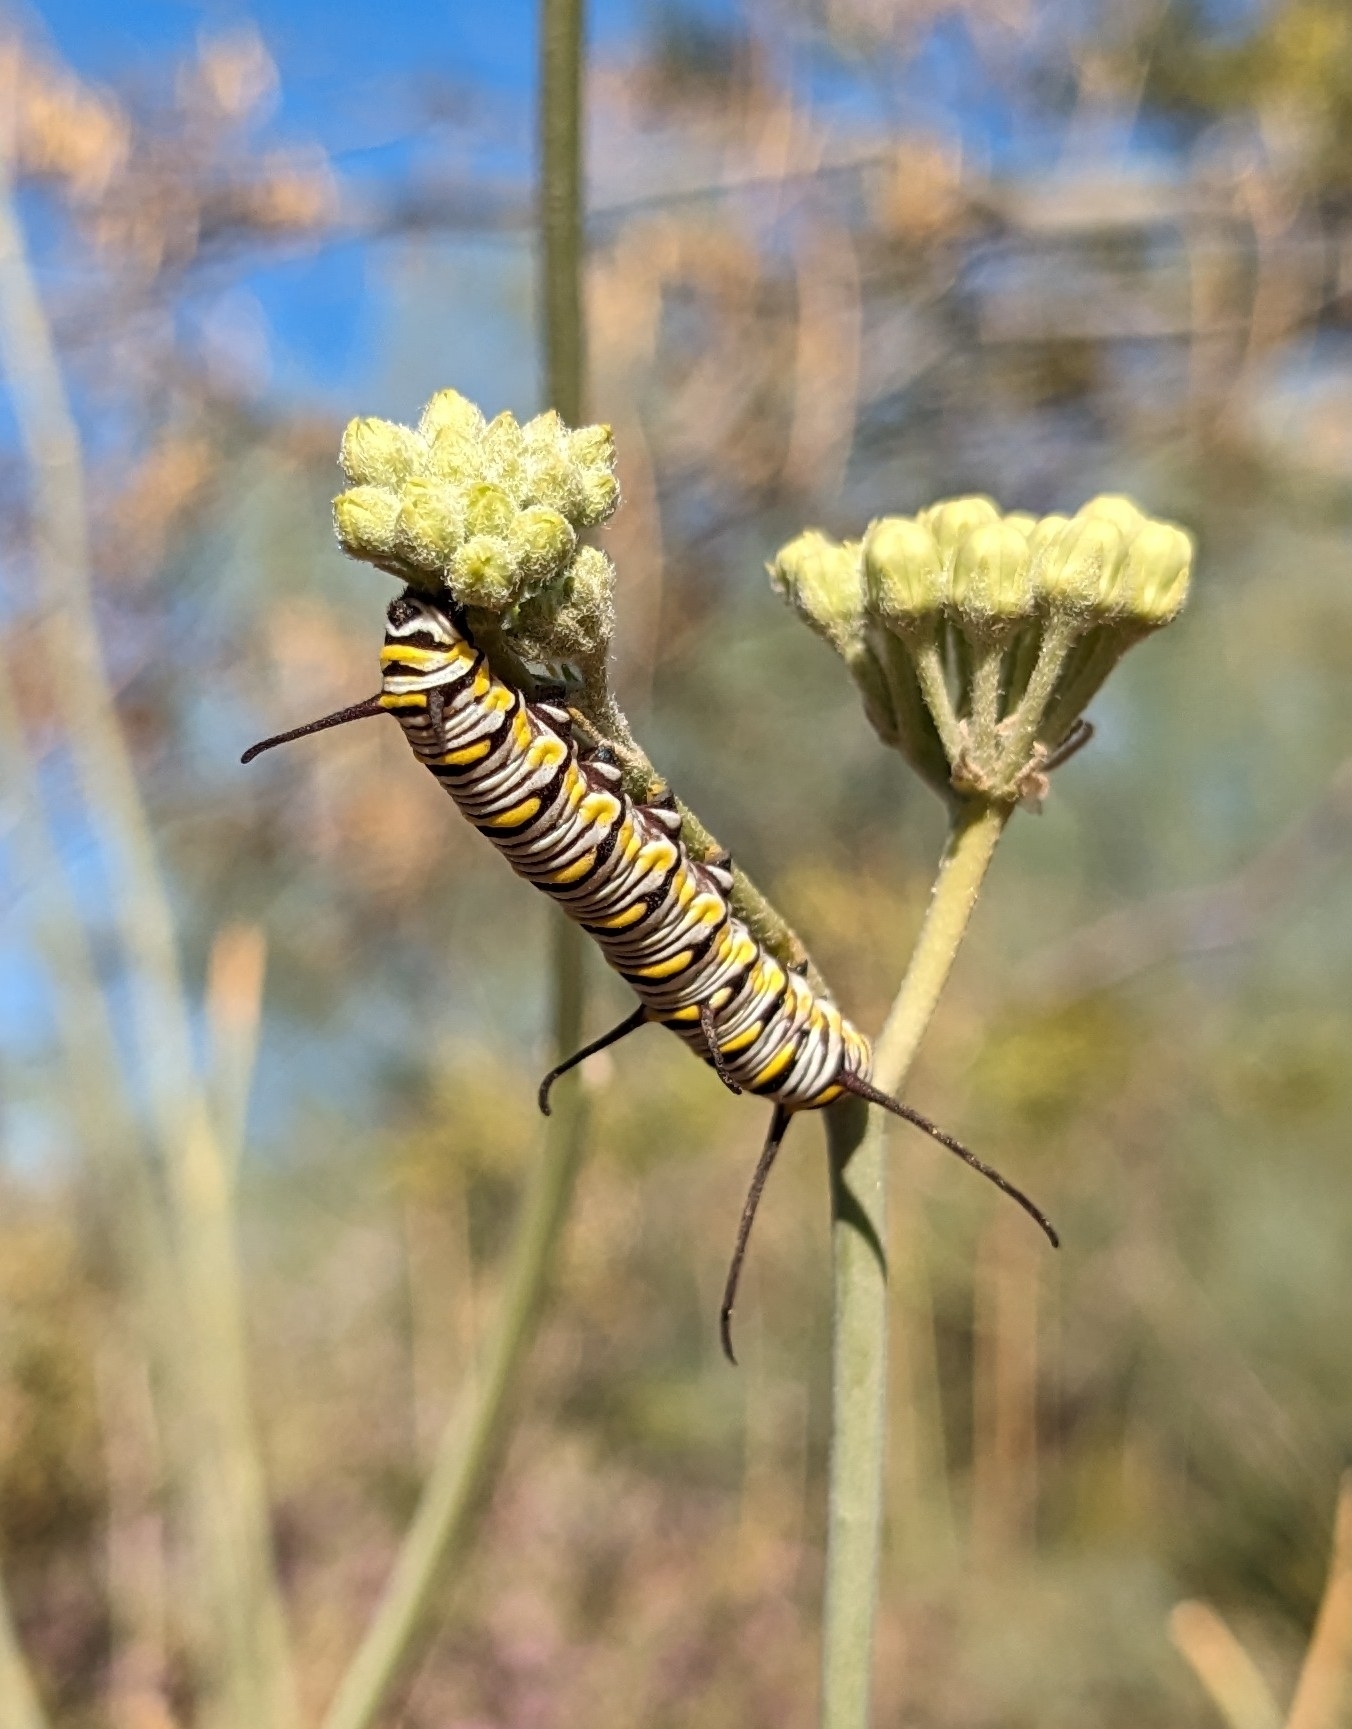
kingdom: Animalia
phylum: Arthropoda
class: Insecta
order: Lepidoptera
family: Nymphalidae
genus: Danaus
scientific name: Danaus gilippus
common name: Queen
